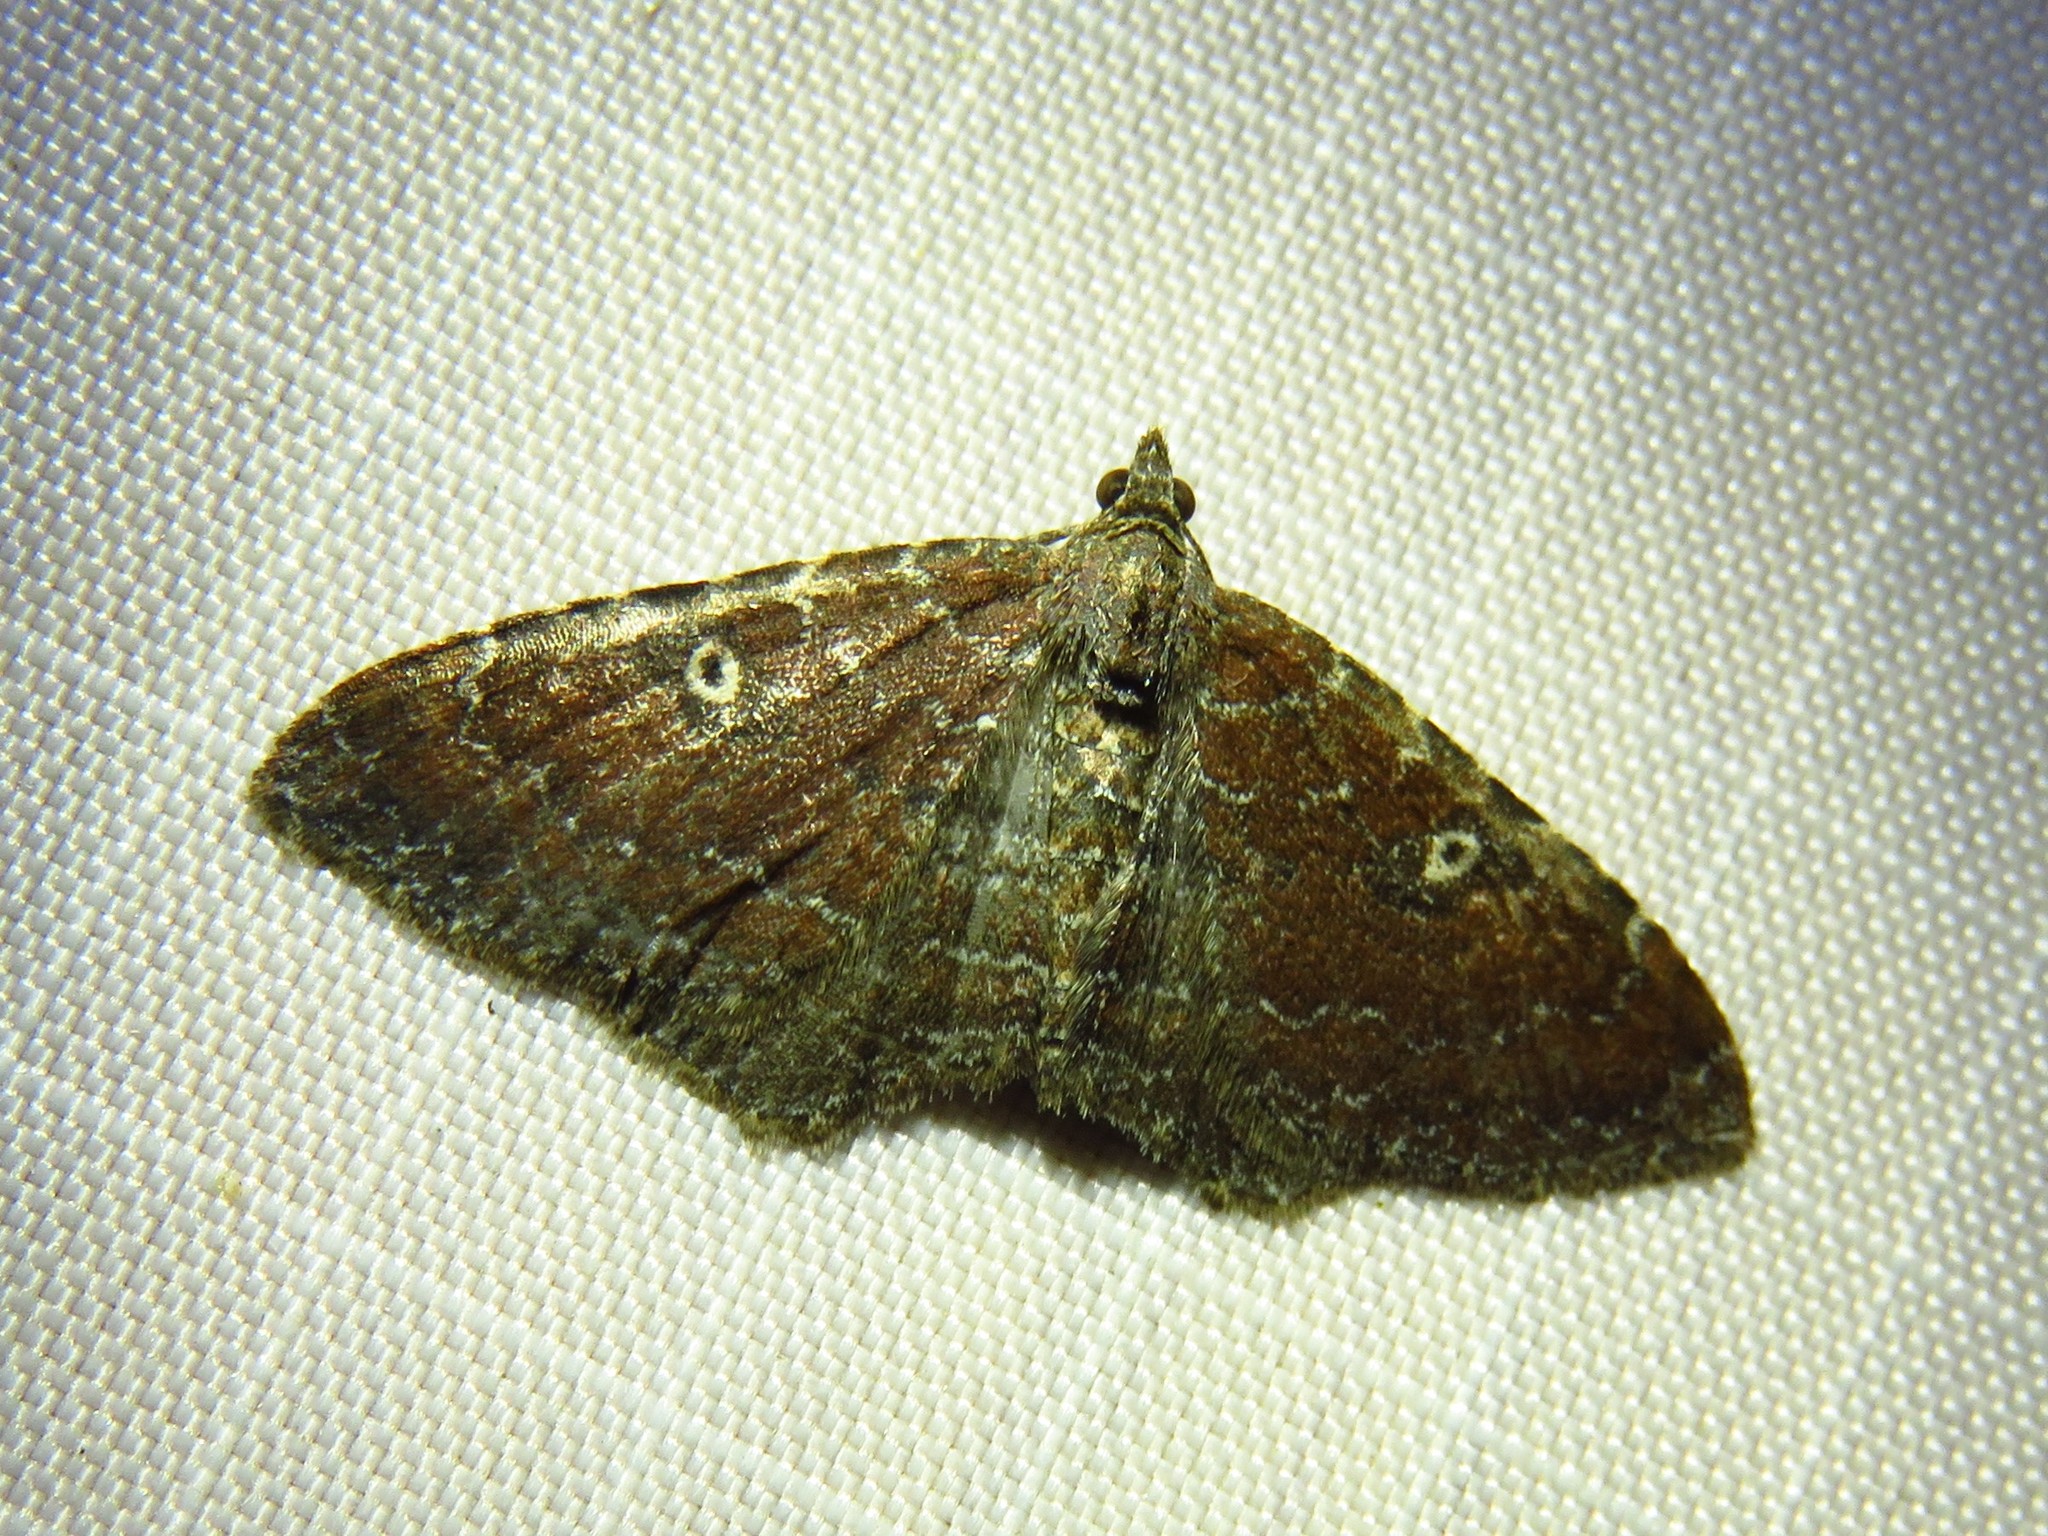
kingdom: Animalia
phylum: Arthropoda
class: Insecta
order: Lepidoptera
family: Geometridae
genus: Orthonama
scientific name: Orthonama obstipata
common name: The gem
